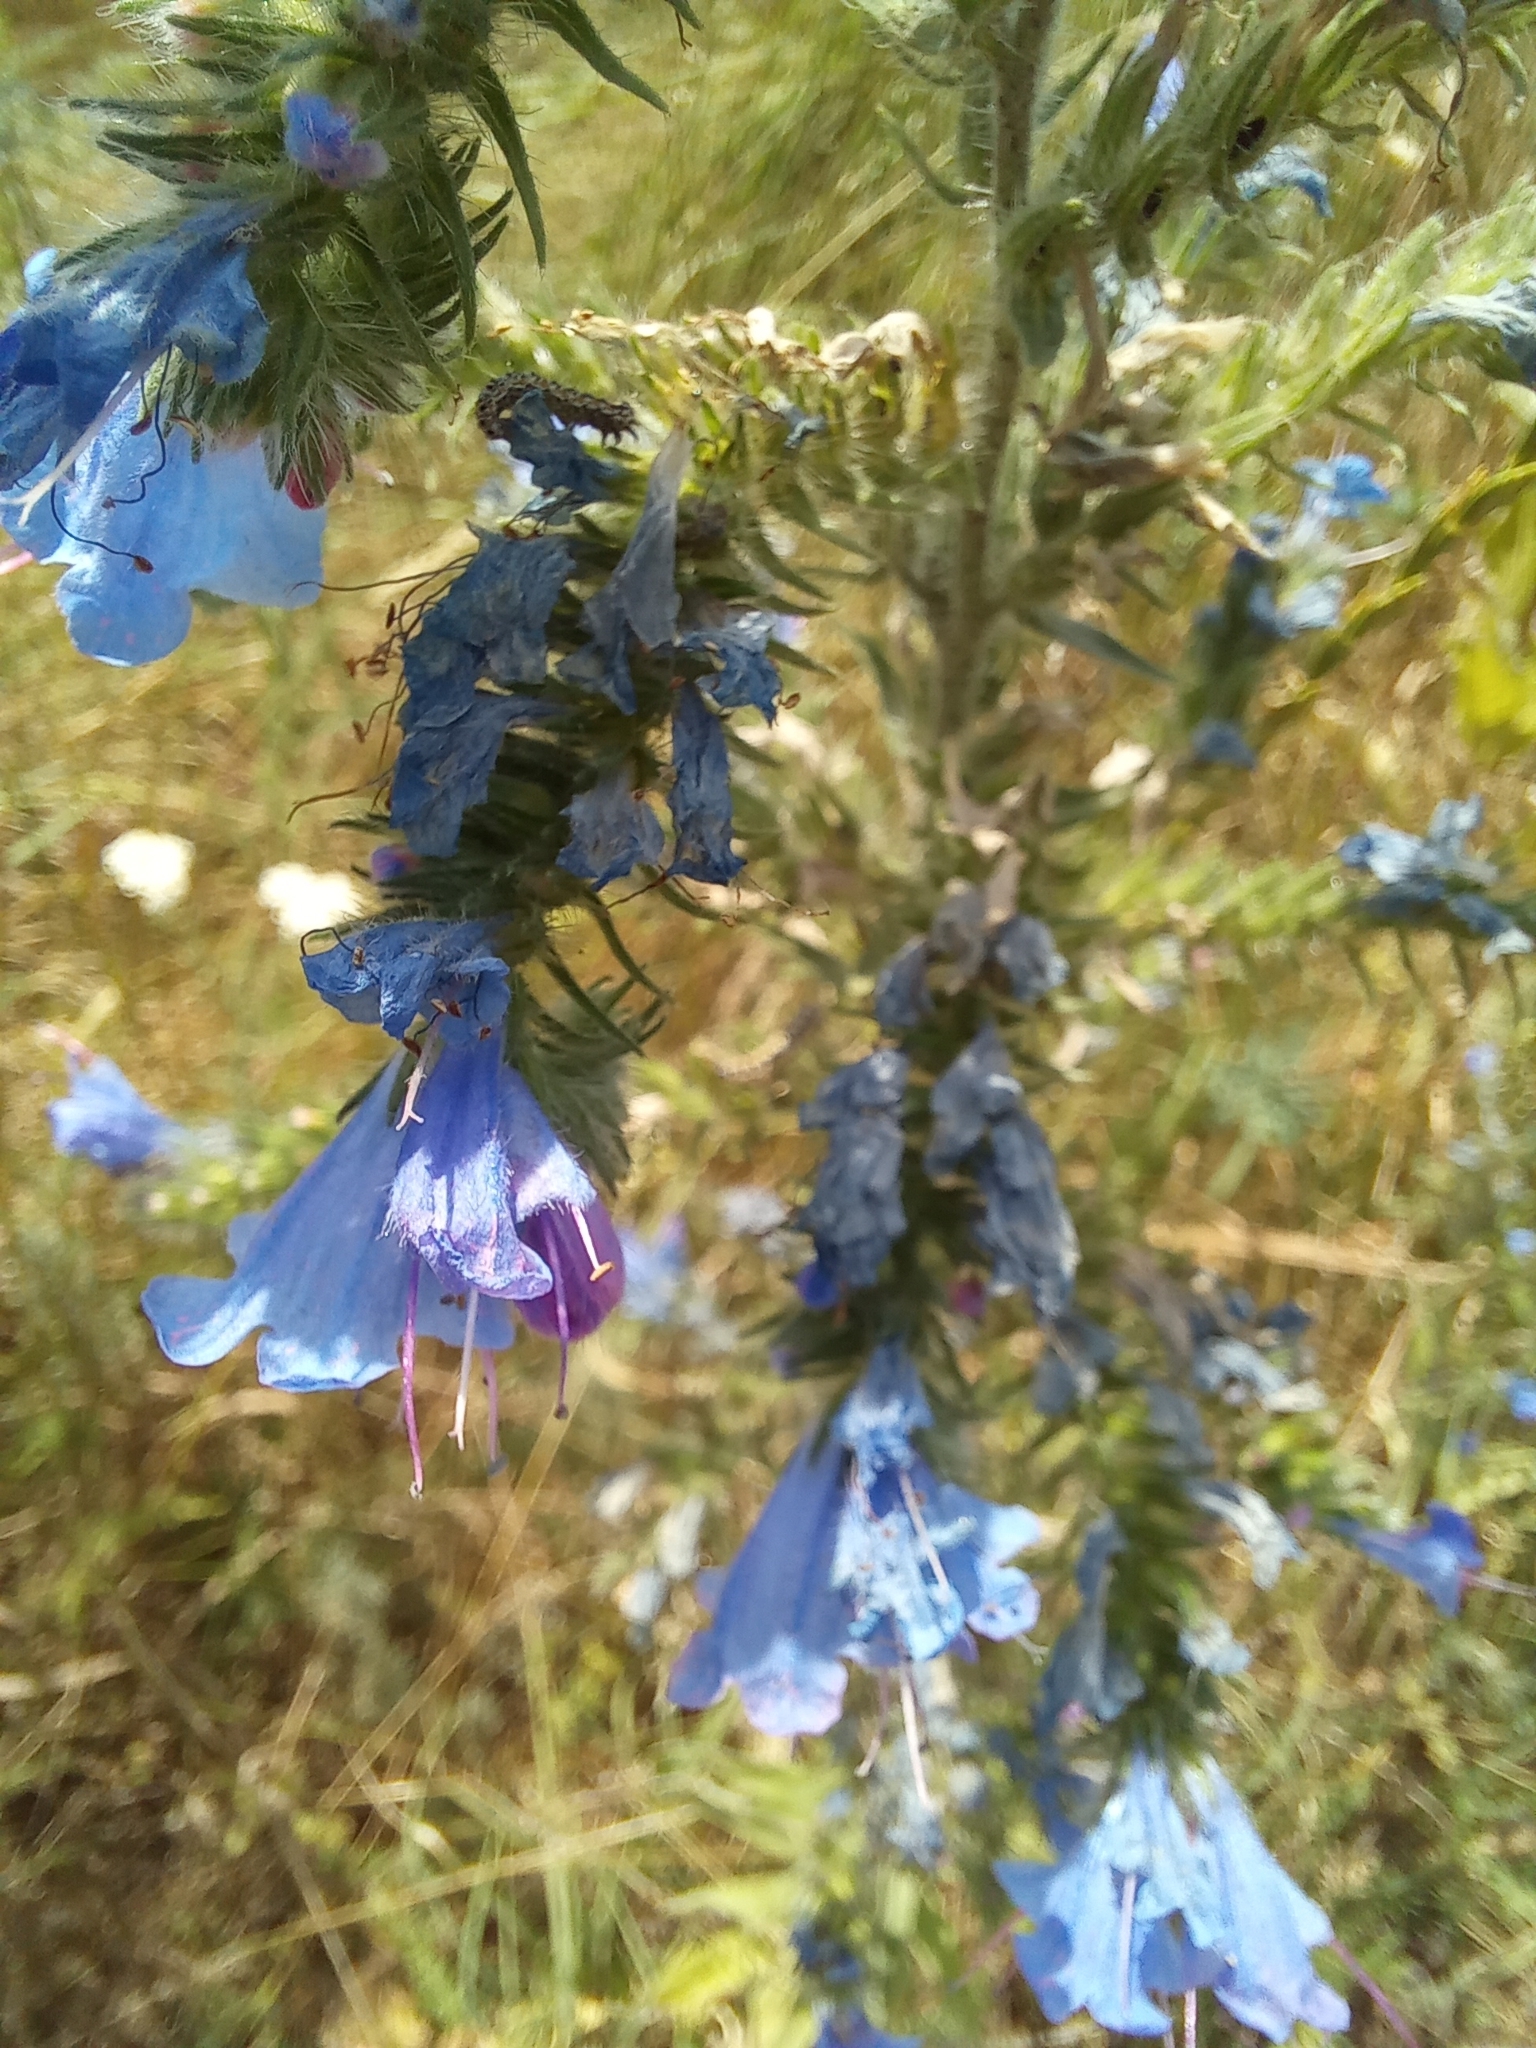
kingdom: Plantae
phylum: Tracheophyta
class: Magnoliopsida
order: Boraginales
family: Boraginaceae
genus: Echium
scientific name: Echium vulgare
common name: Common viper's bugloss
